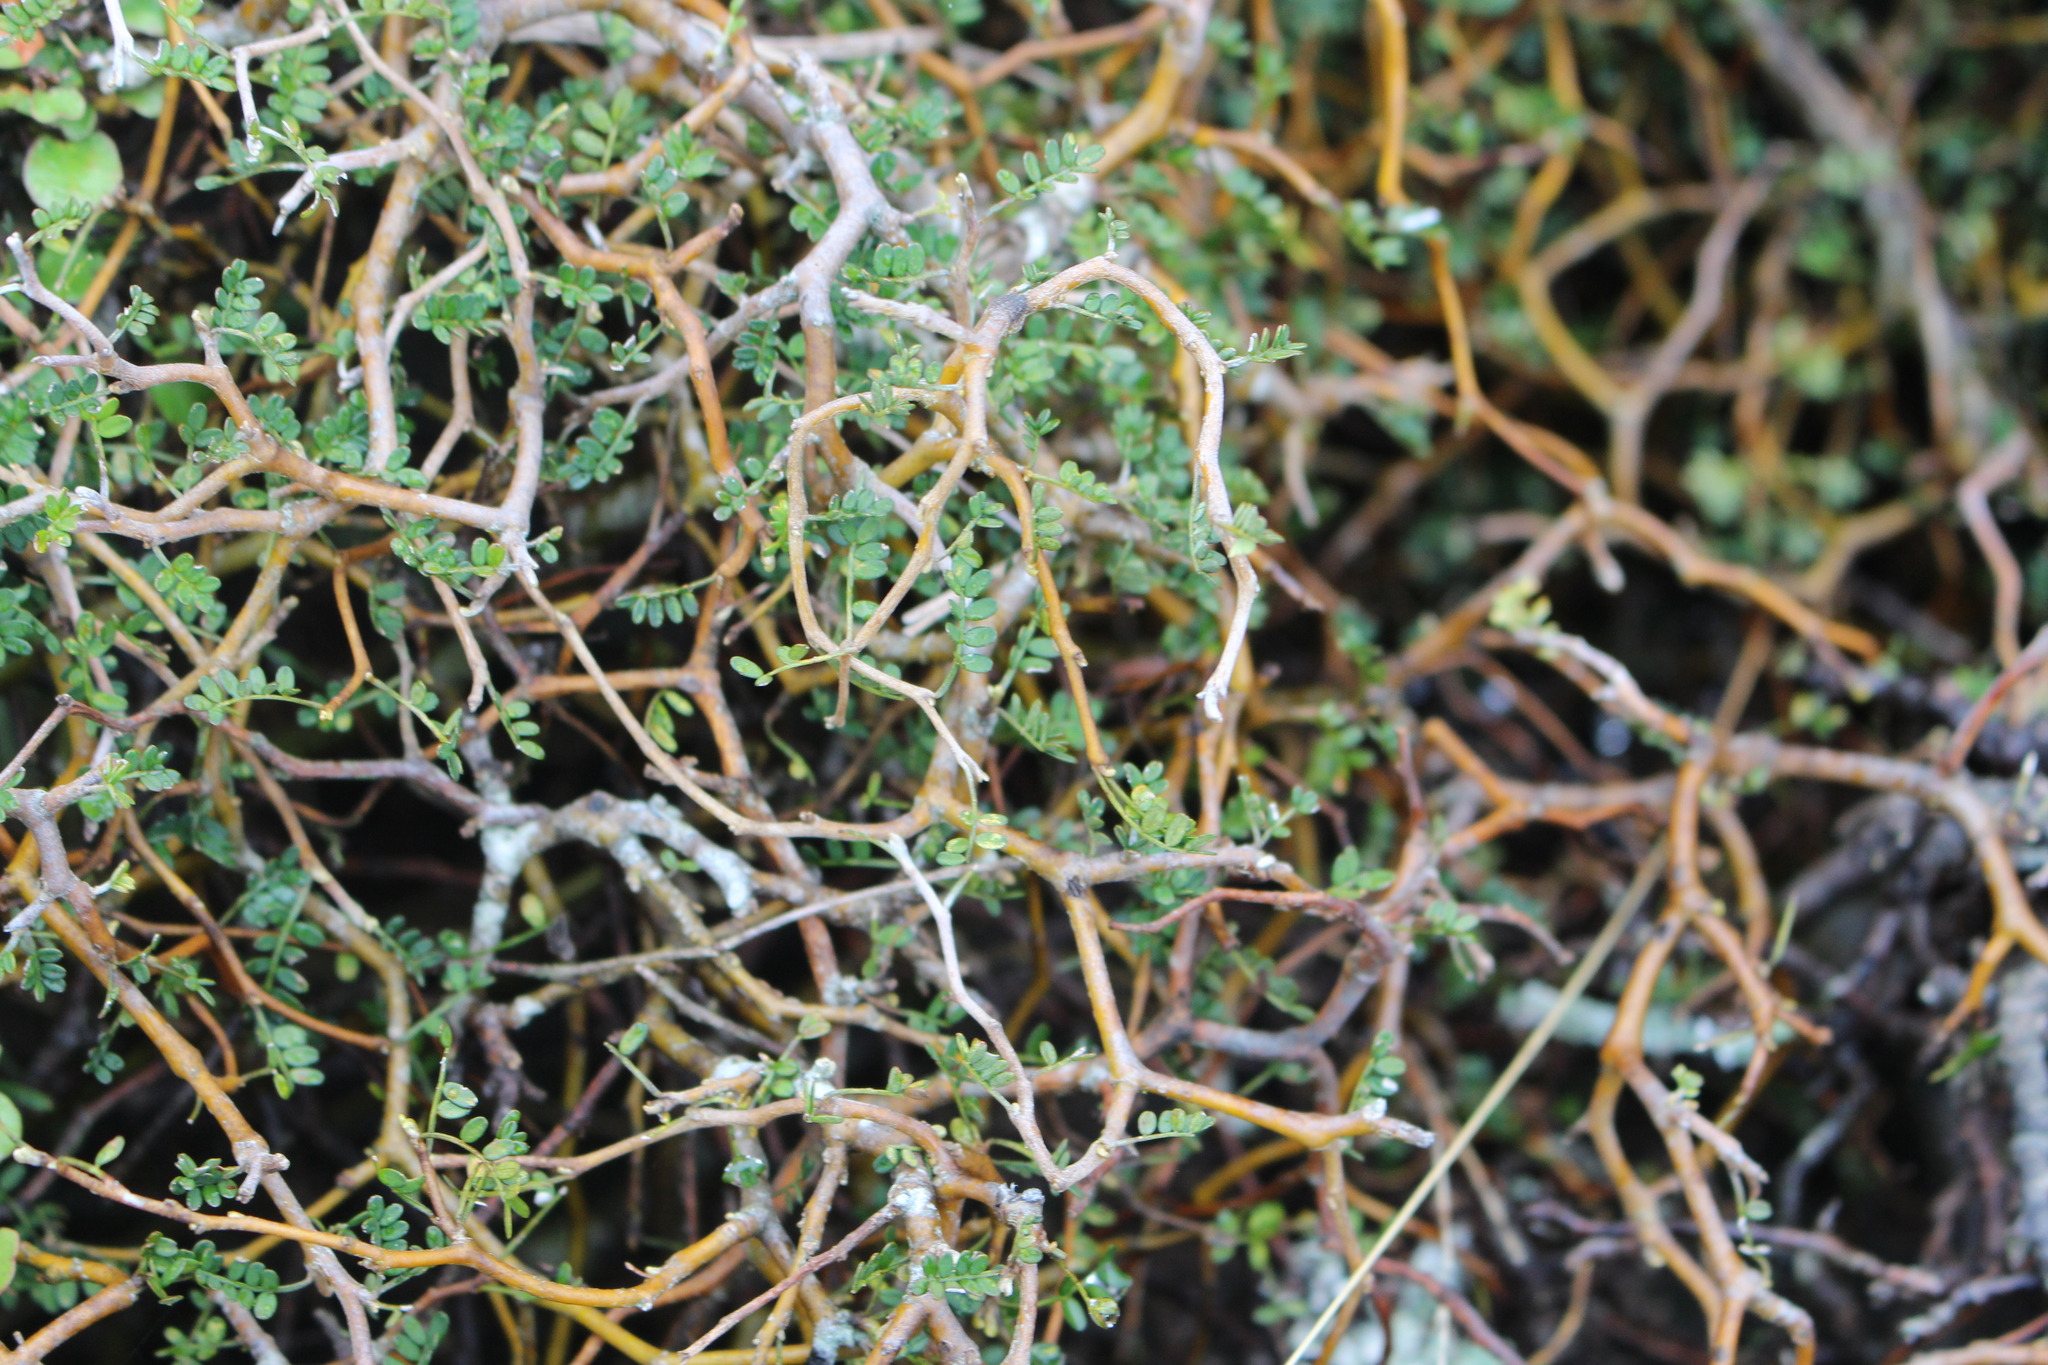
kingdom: Plantae
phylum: Tracheophyta
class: Magnoliopsida
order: Fabales
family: Fabaceae
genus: Sophora
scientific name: Sophora prostrata
